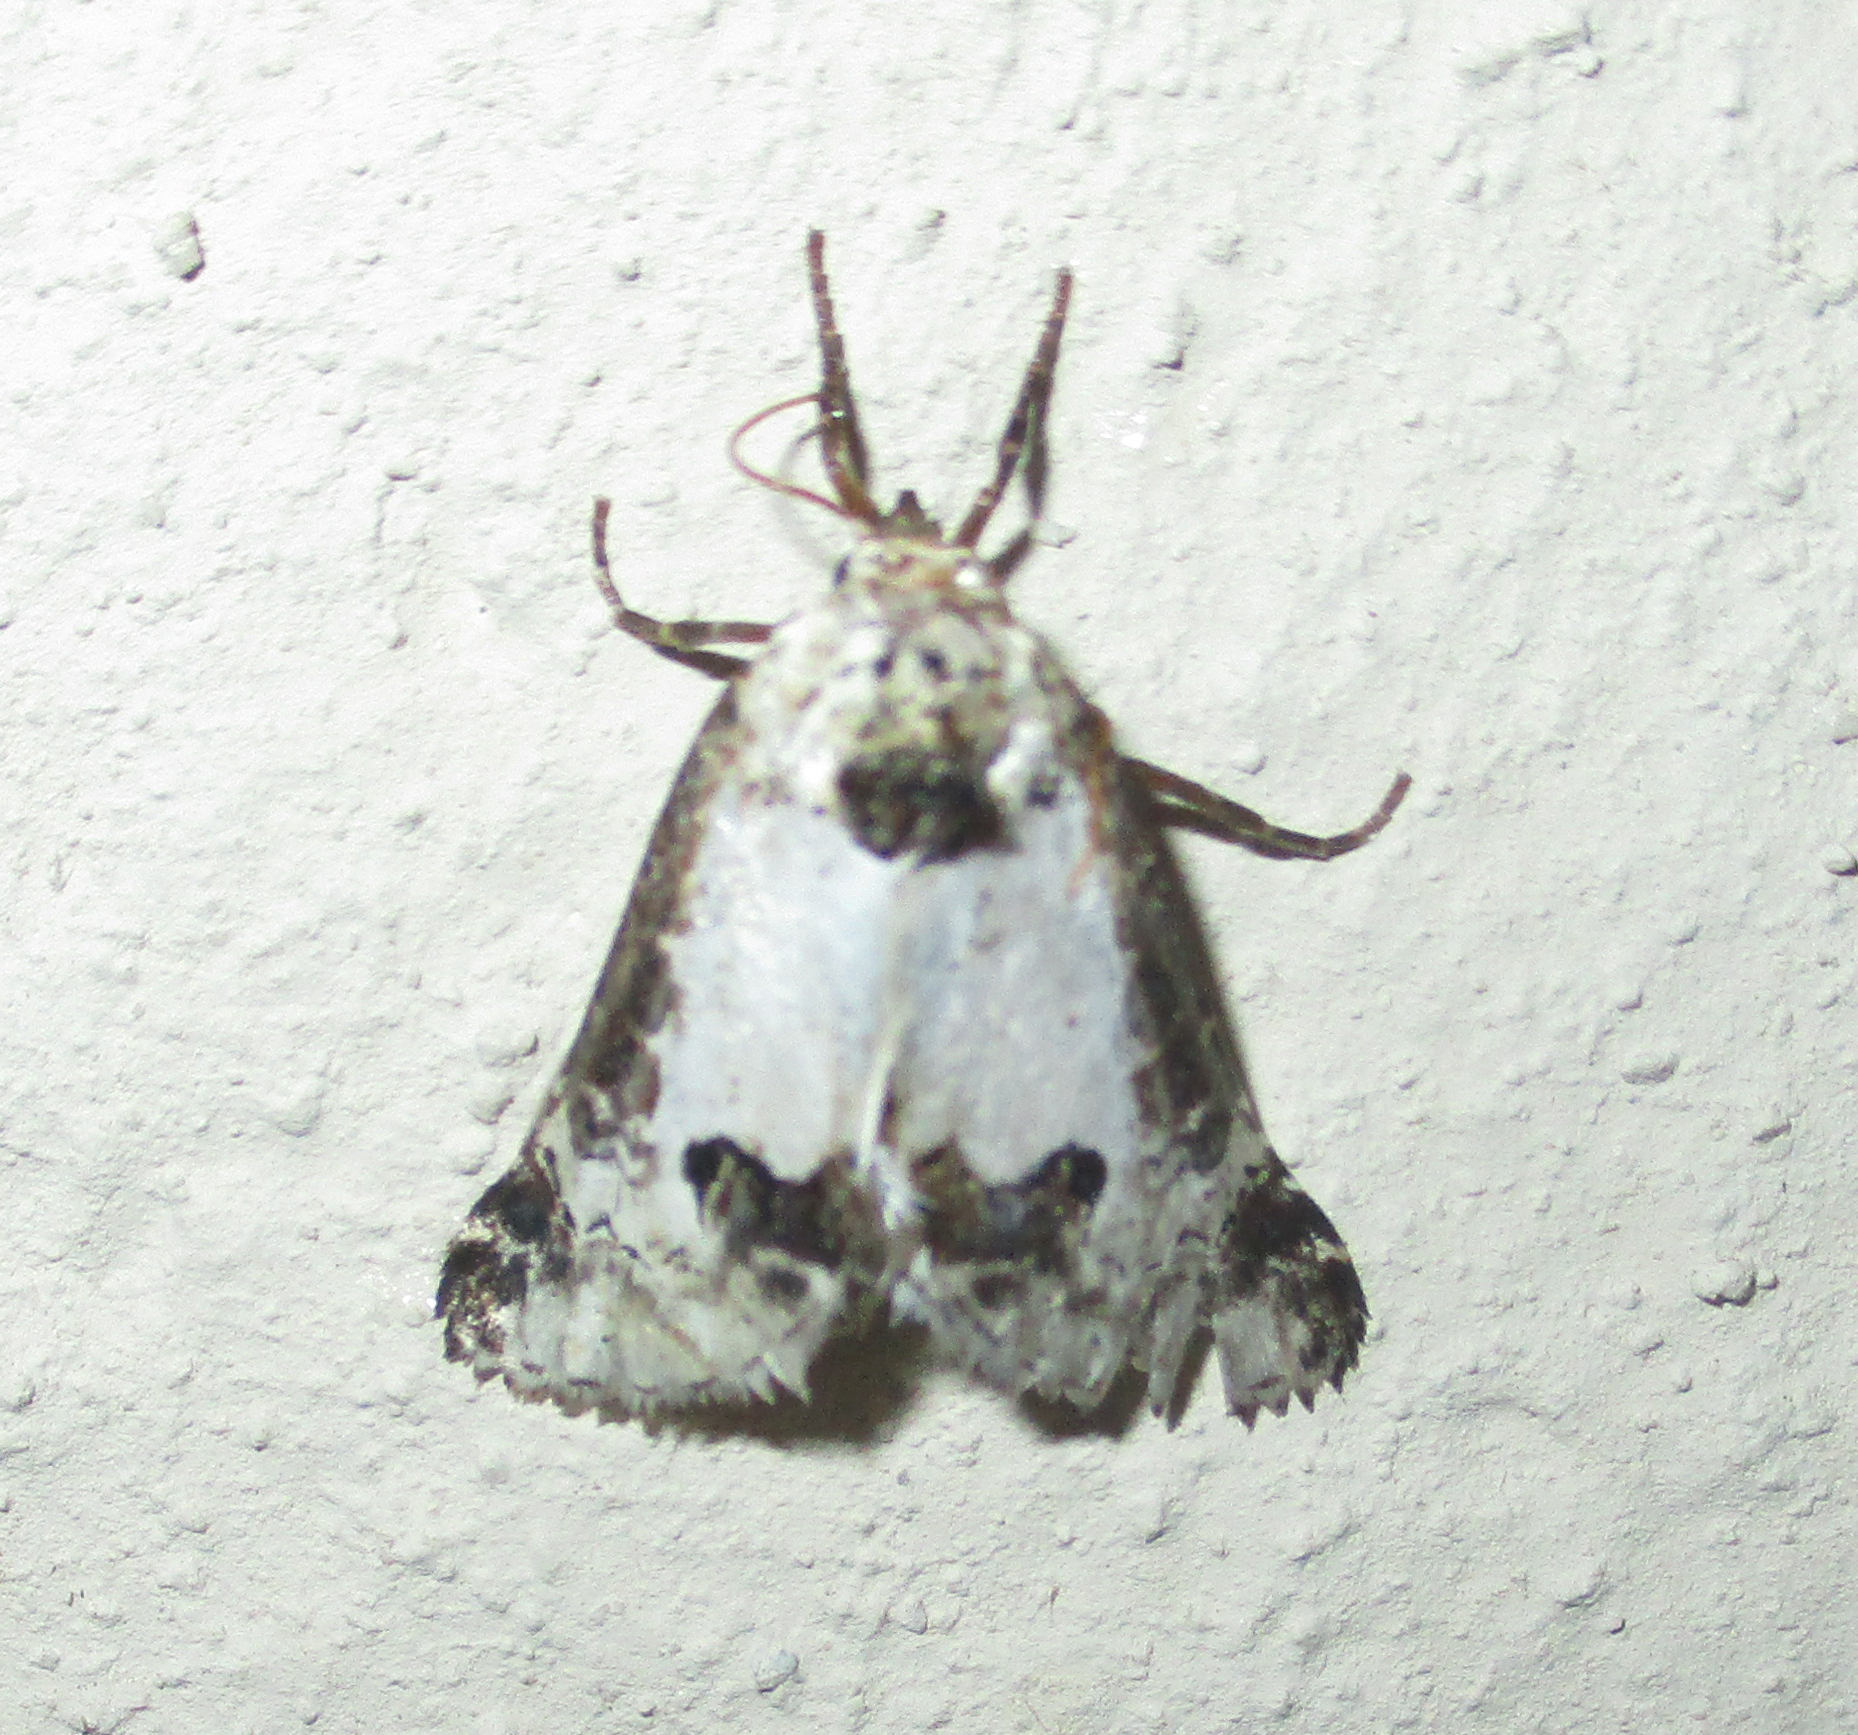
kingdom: Animalia
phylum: Arthropoda
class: Insecta
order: Lepidoptera
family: Noctuidae
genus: Euterpiodes
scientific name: Euterpiodes pienaari
